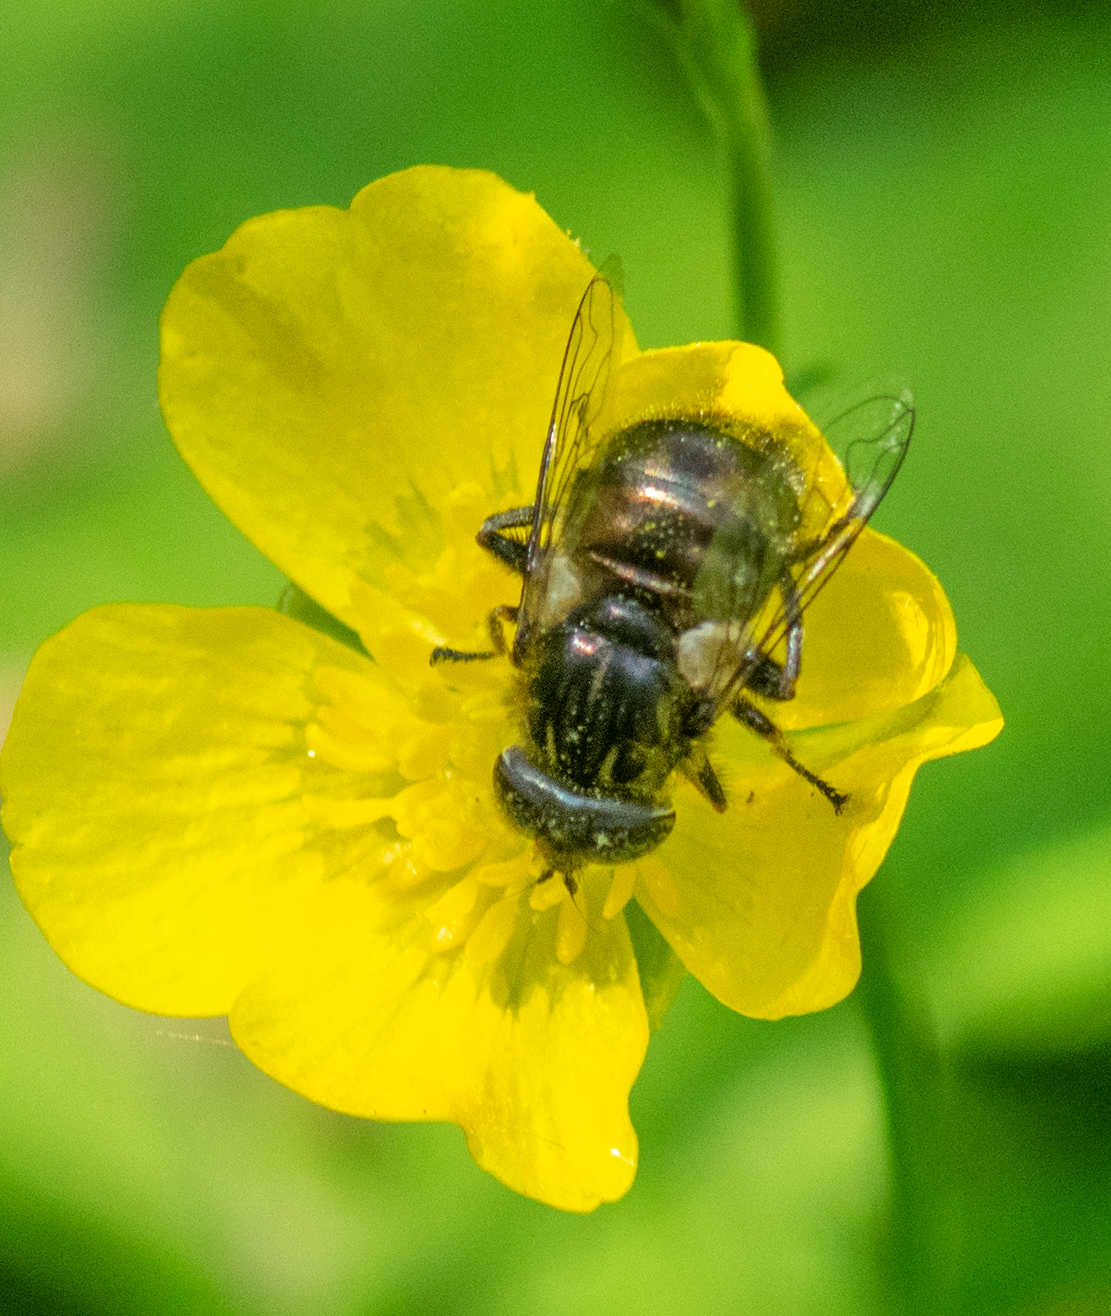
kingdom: Animalia
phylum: Arthropoda
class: Insecta
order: Diptera
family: Syrphidae
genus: Eristalinus
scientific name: Eristalinus sepulchralis
